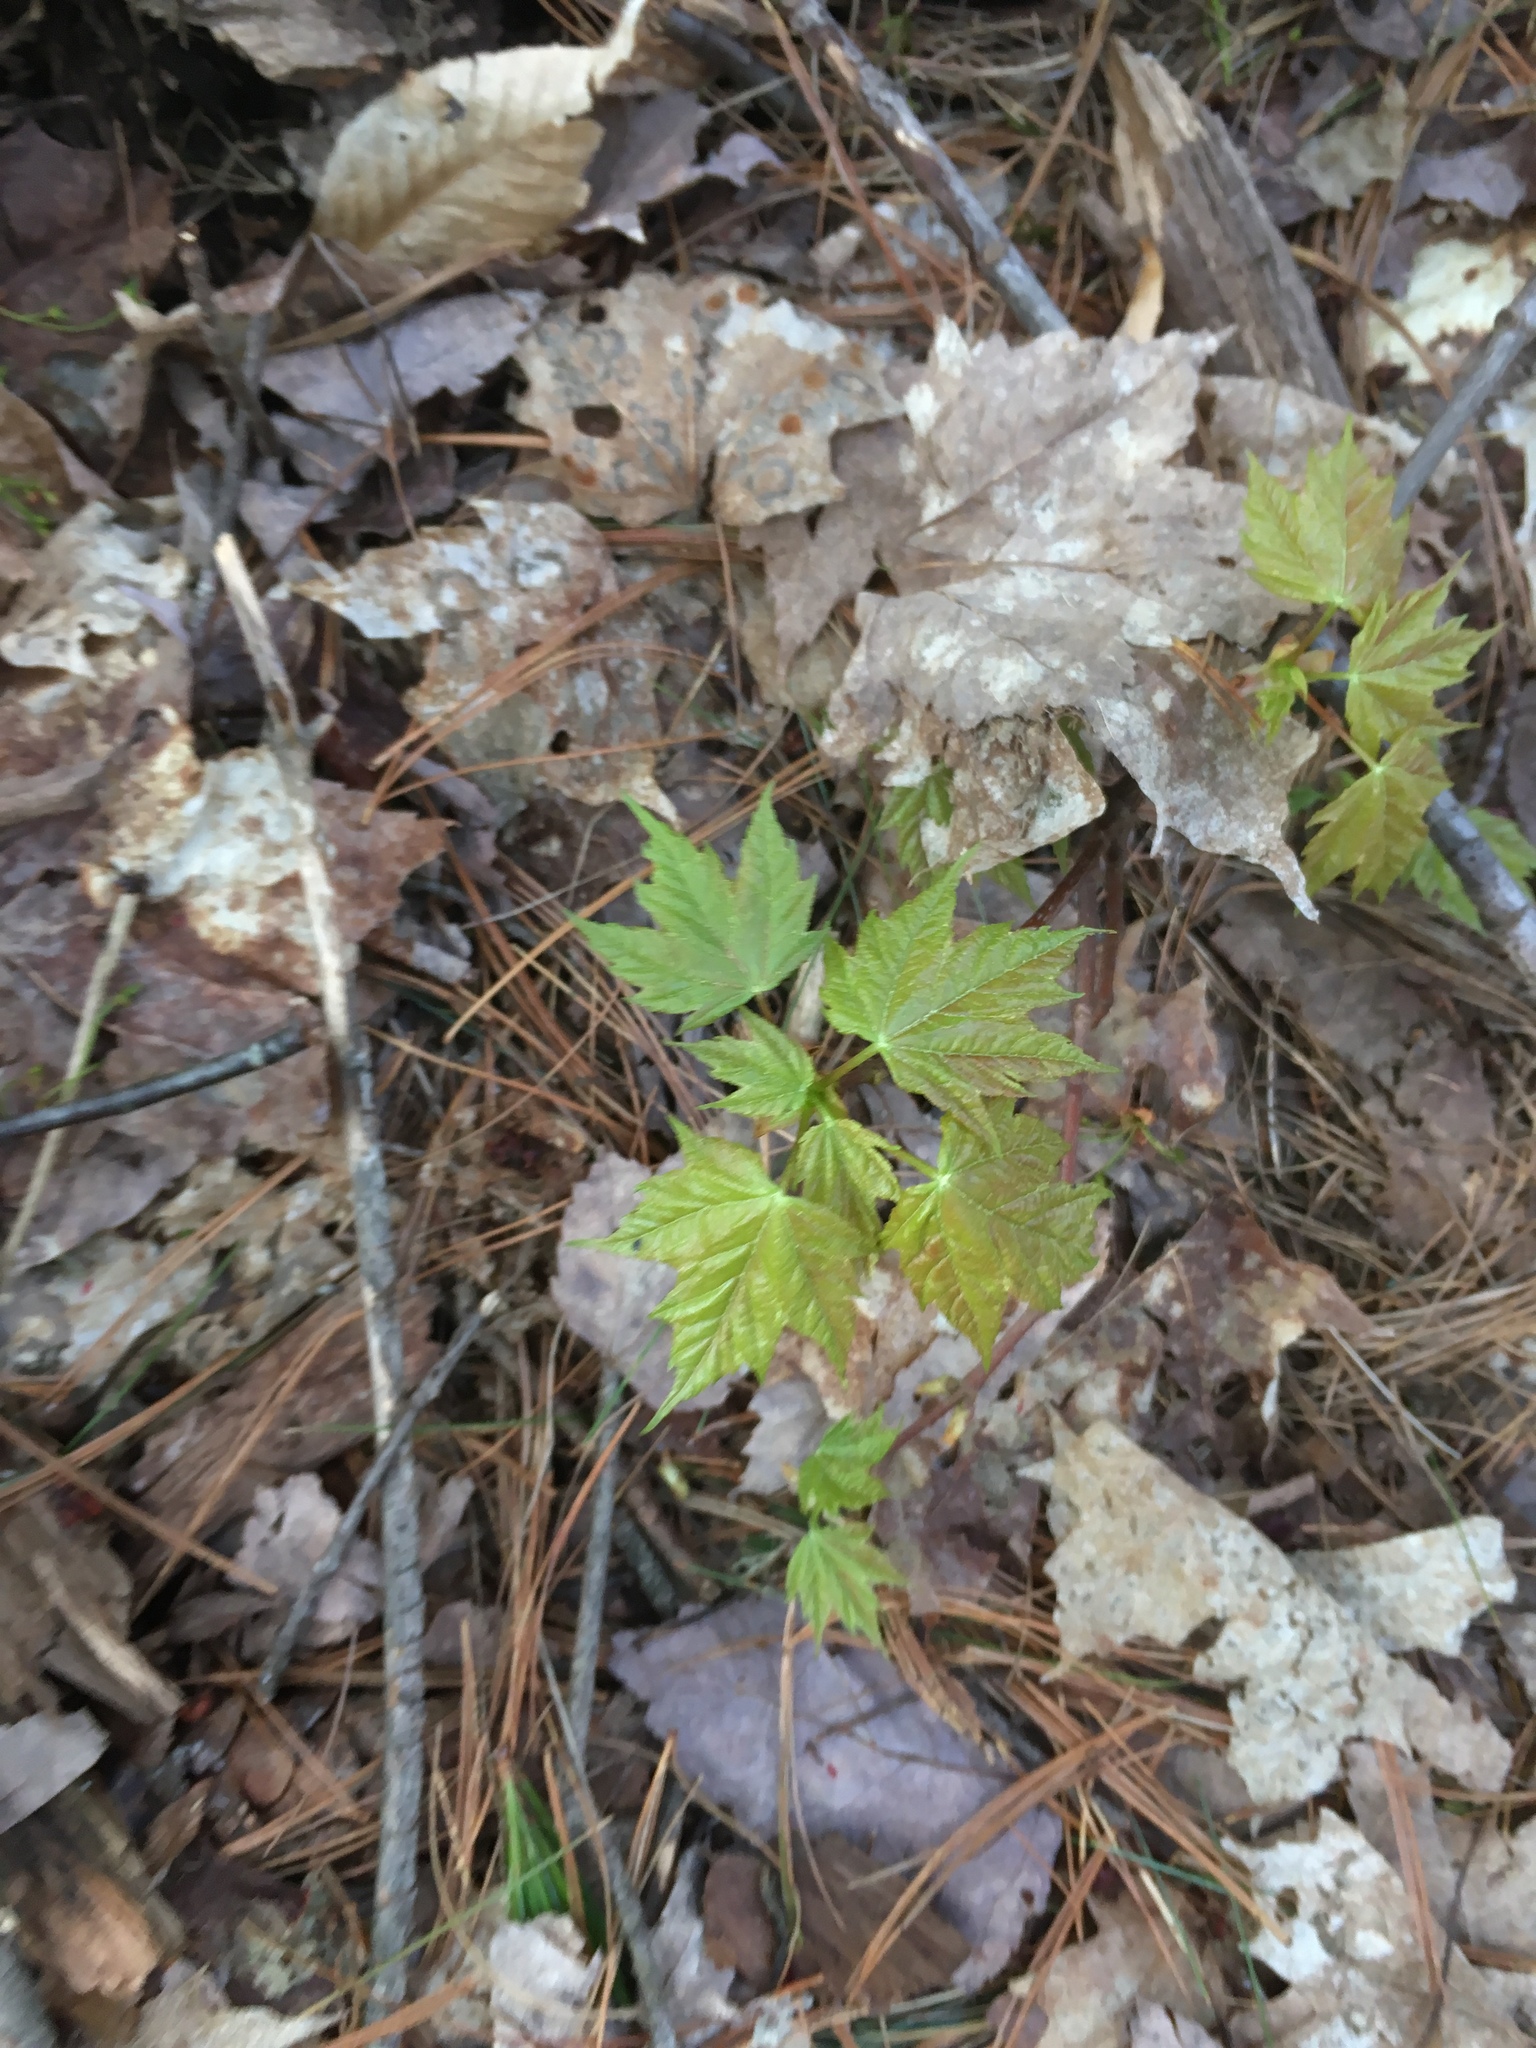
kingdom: Plantae
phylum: Tracheophyta
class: Magnoliopsida
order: Sapindales
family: Sapindaceae
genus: Acer
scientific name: Acer saccharum
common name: Sugar maple
